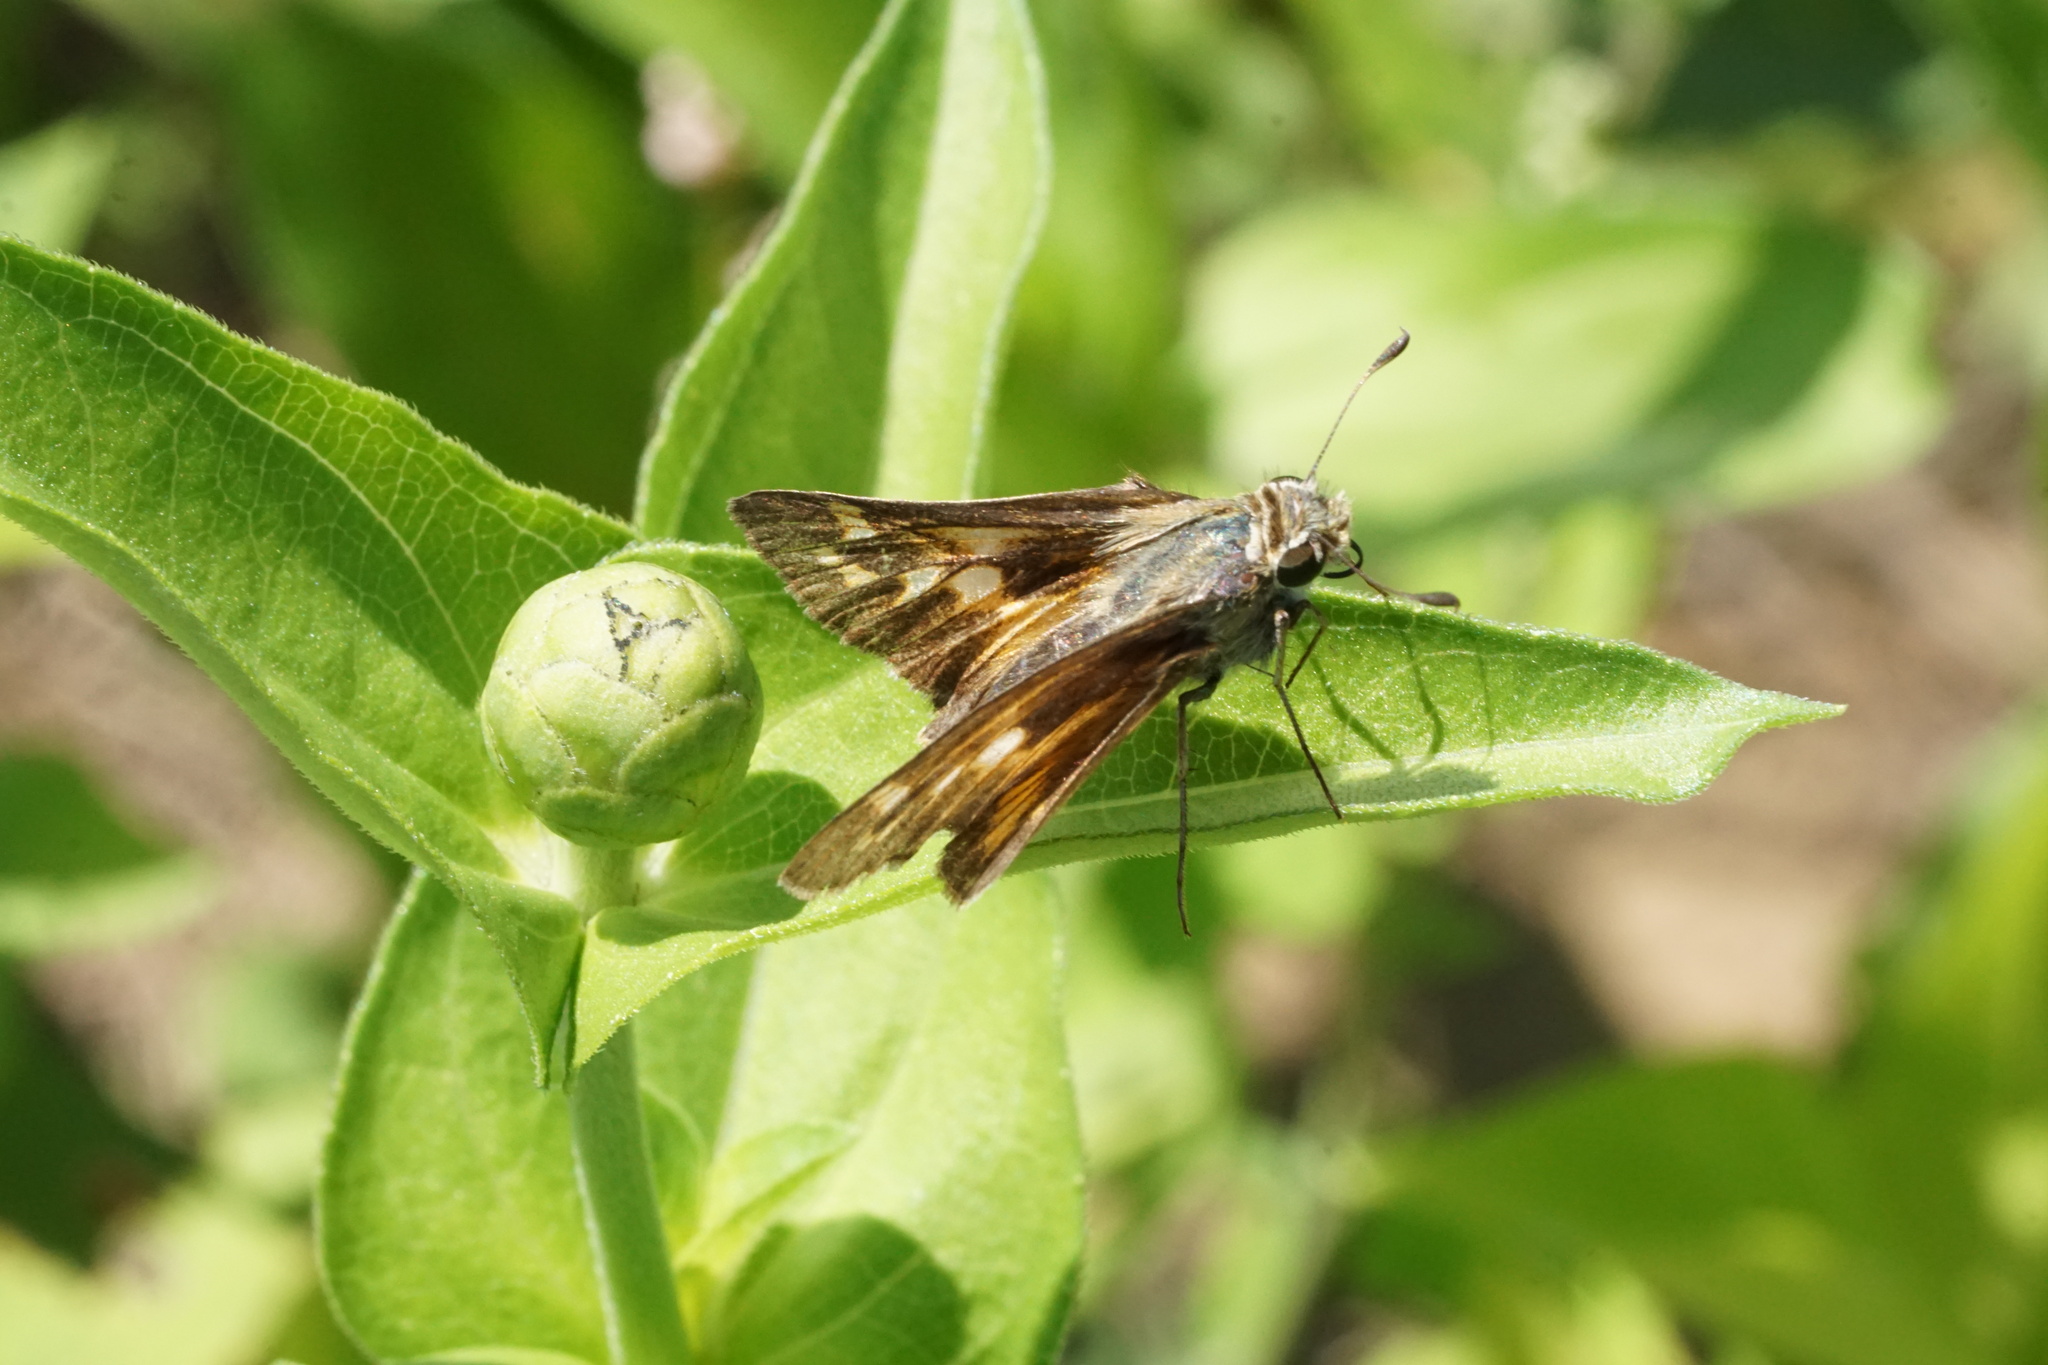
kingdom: Animalia
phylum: Arthropoda
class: Insecta
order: Lepidoptera
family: Hesperiidae
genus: Atalopedes
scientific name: Atalopedes
